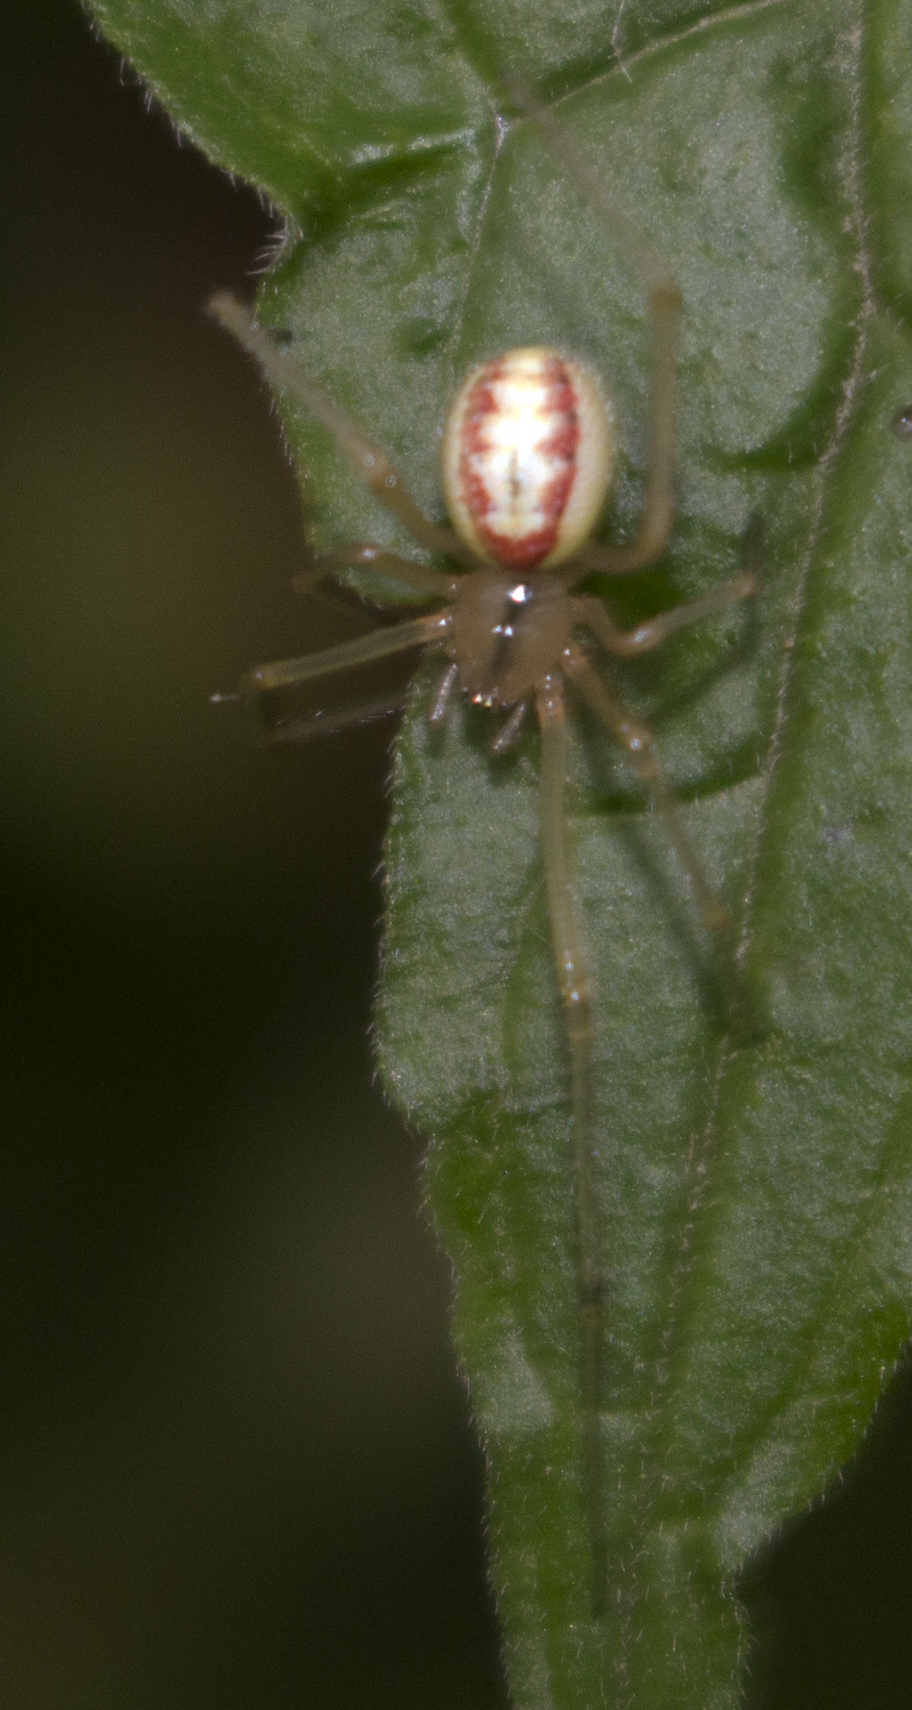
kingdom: Animalia
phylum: Arthropoda
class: Arachnida
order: Araneae
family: Theridiidae
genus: Enoplognatha
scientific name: Enoplognatha ovata
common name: Common candy-striped spider
